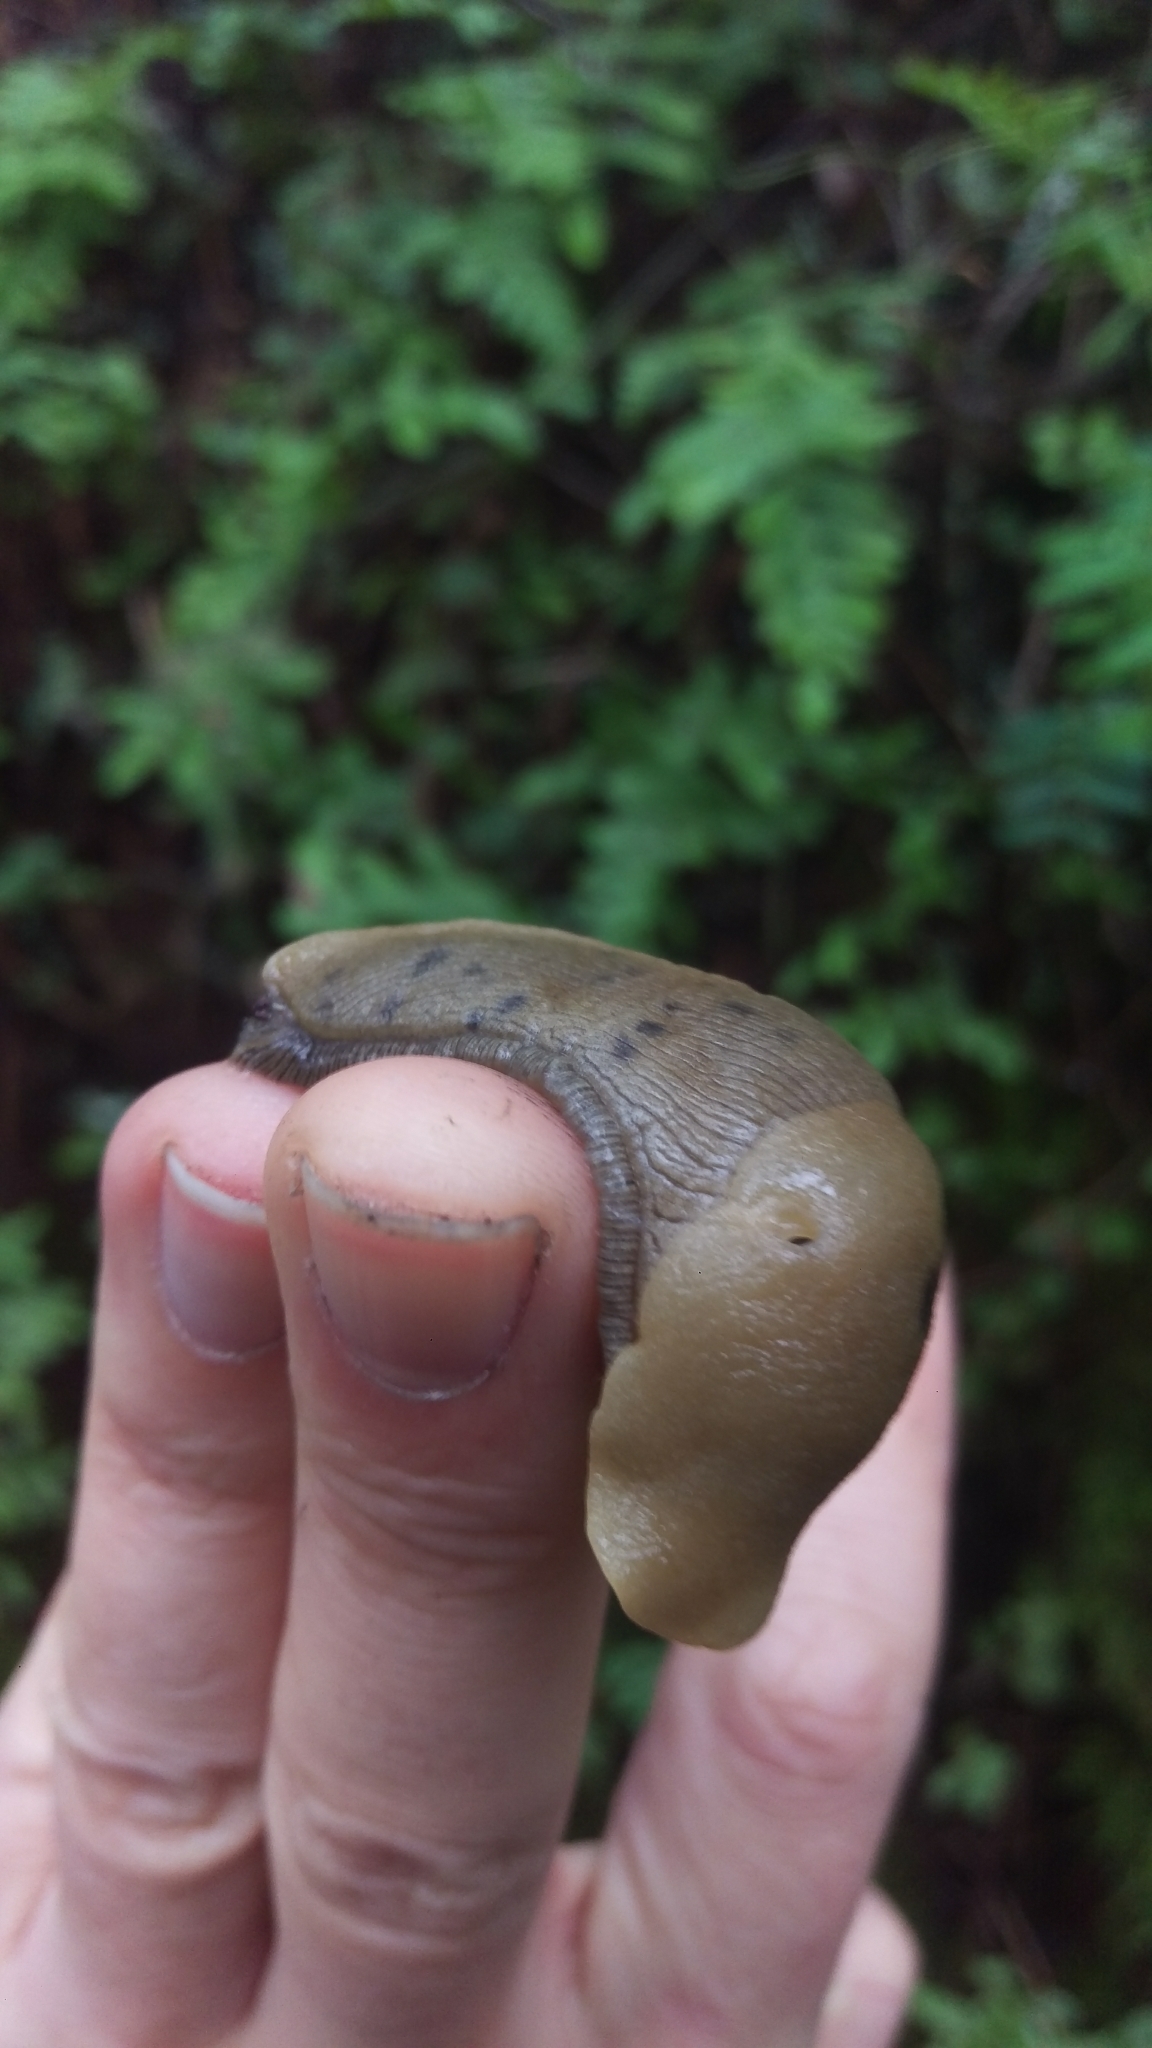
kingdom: Animalia
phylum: Mollusca
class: Gastropoda
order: Stylommatophora
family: Ariolimacidae
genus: Ariolimax
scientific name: Ariolimax buttoni
